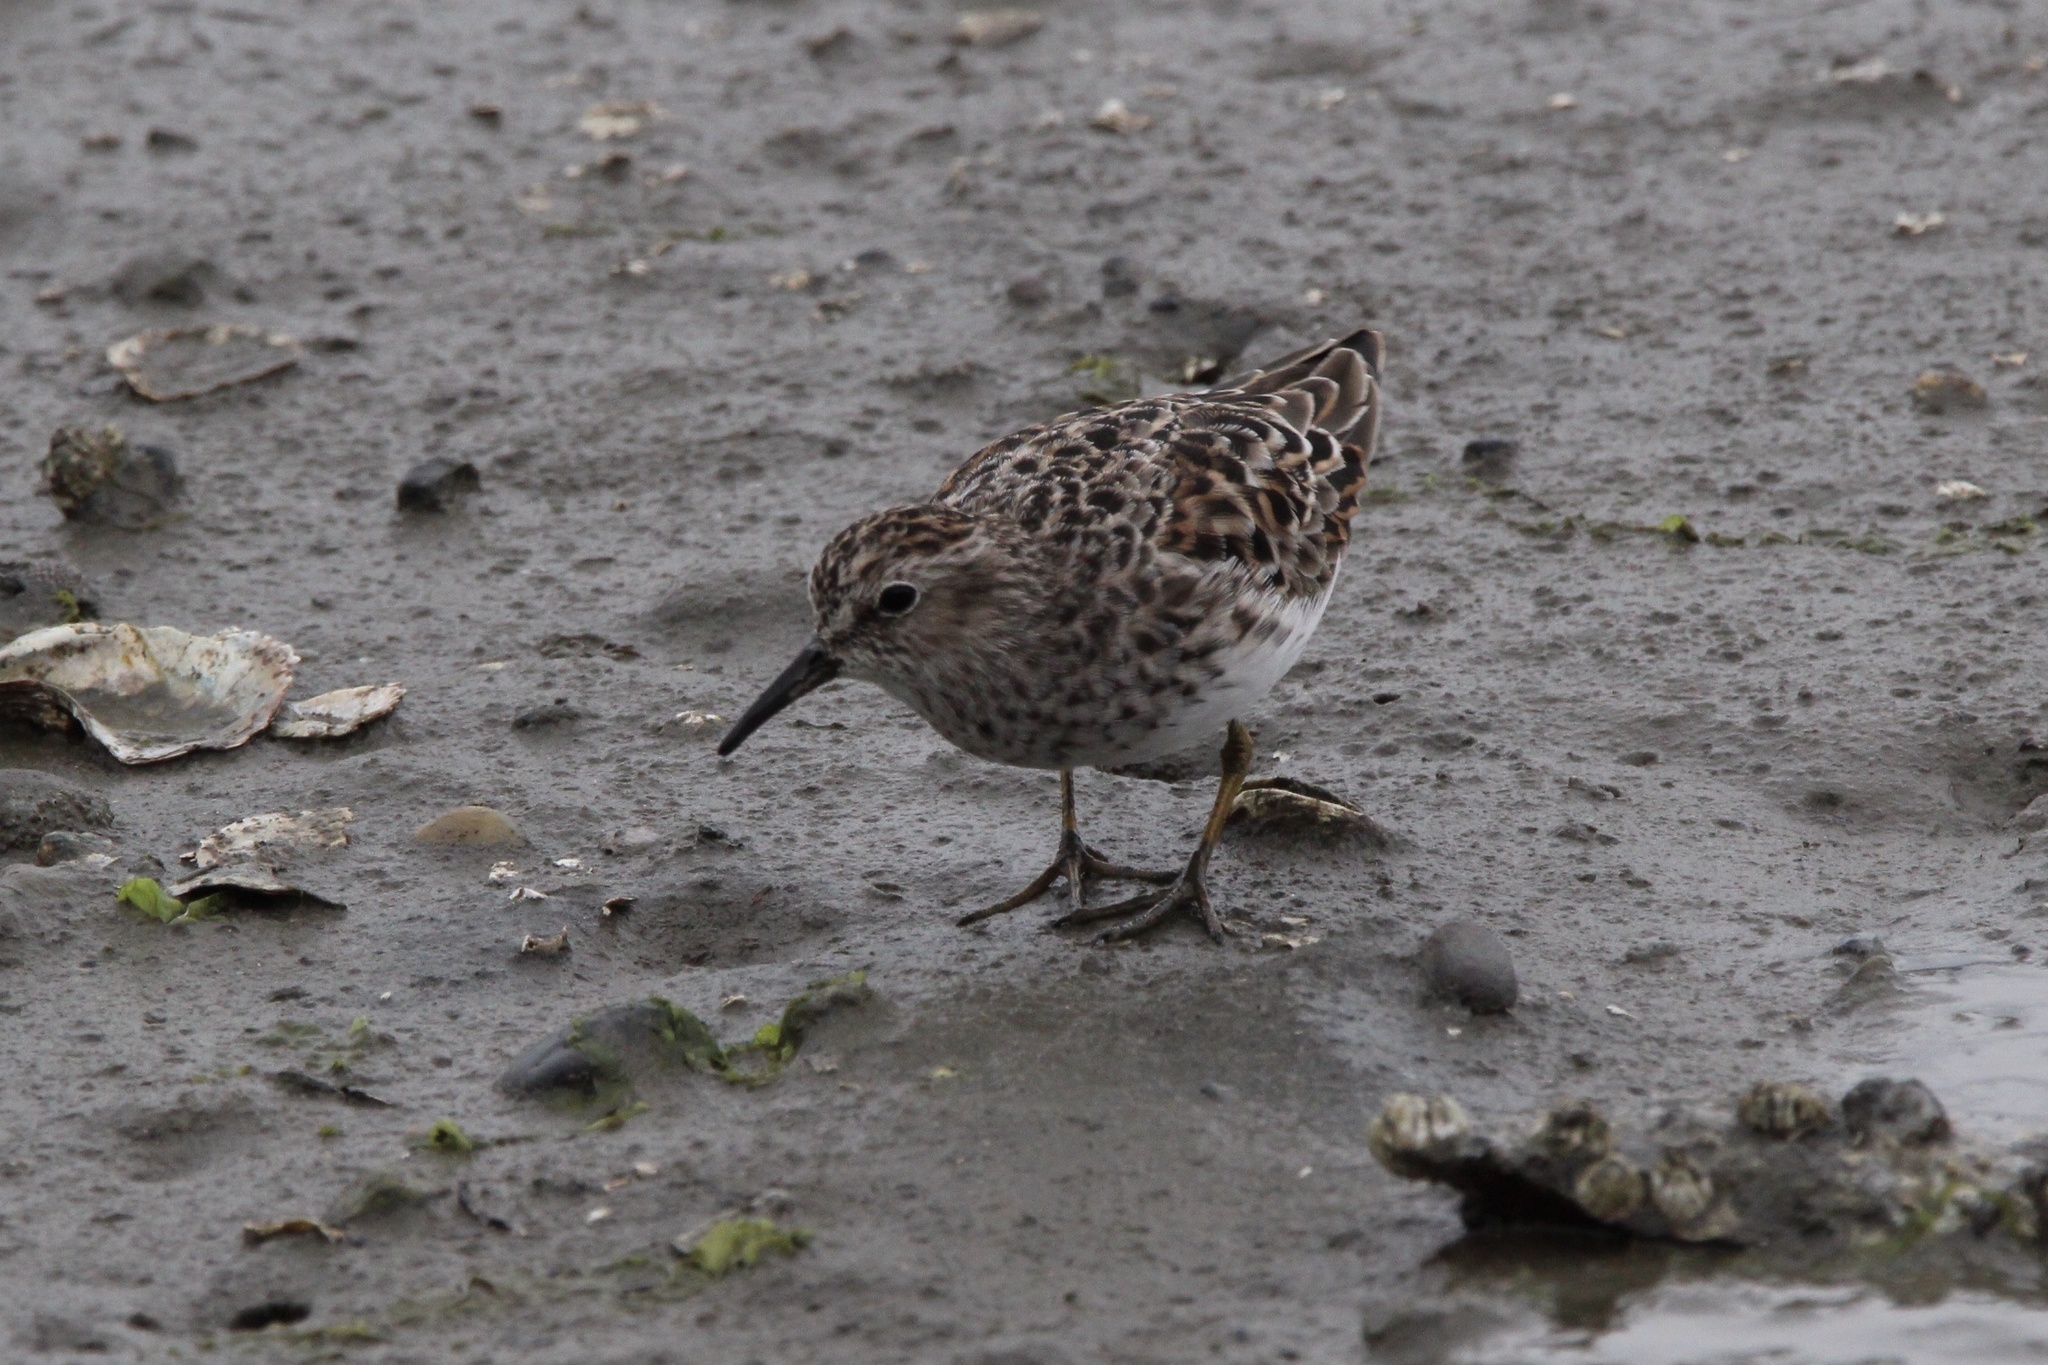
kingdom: Animalia
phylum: Chordata
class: Aves
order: Charadriiformes
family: Scolopacidae
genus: Calidris
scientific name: Calidris minutilla
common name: Least sandpiper
